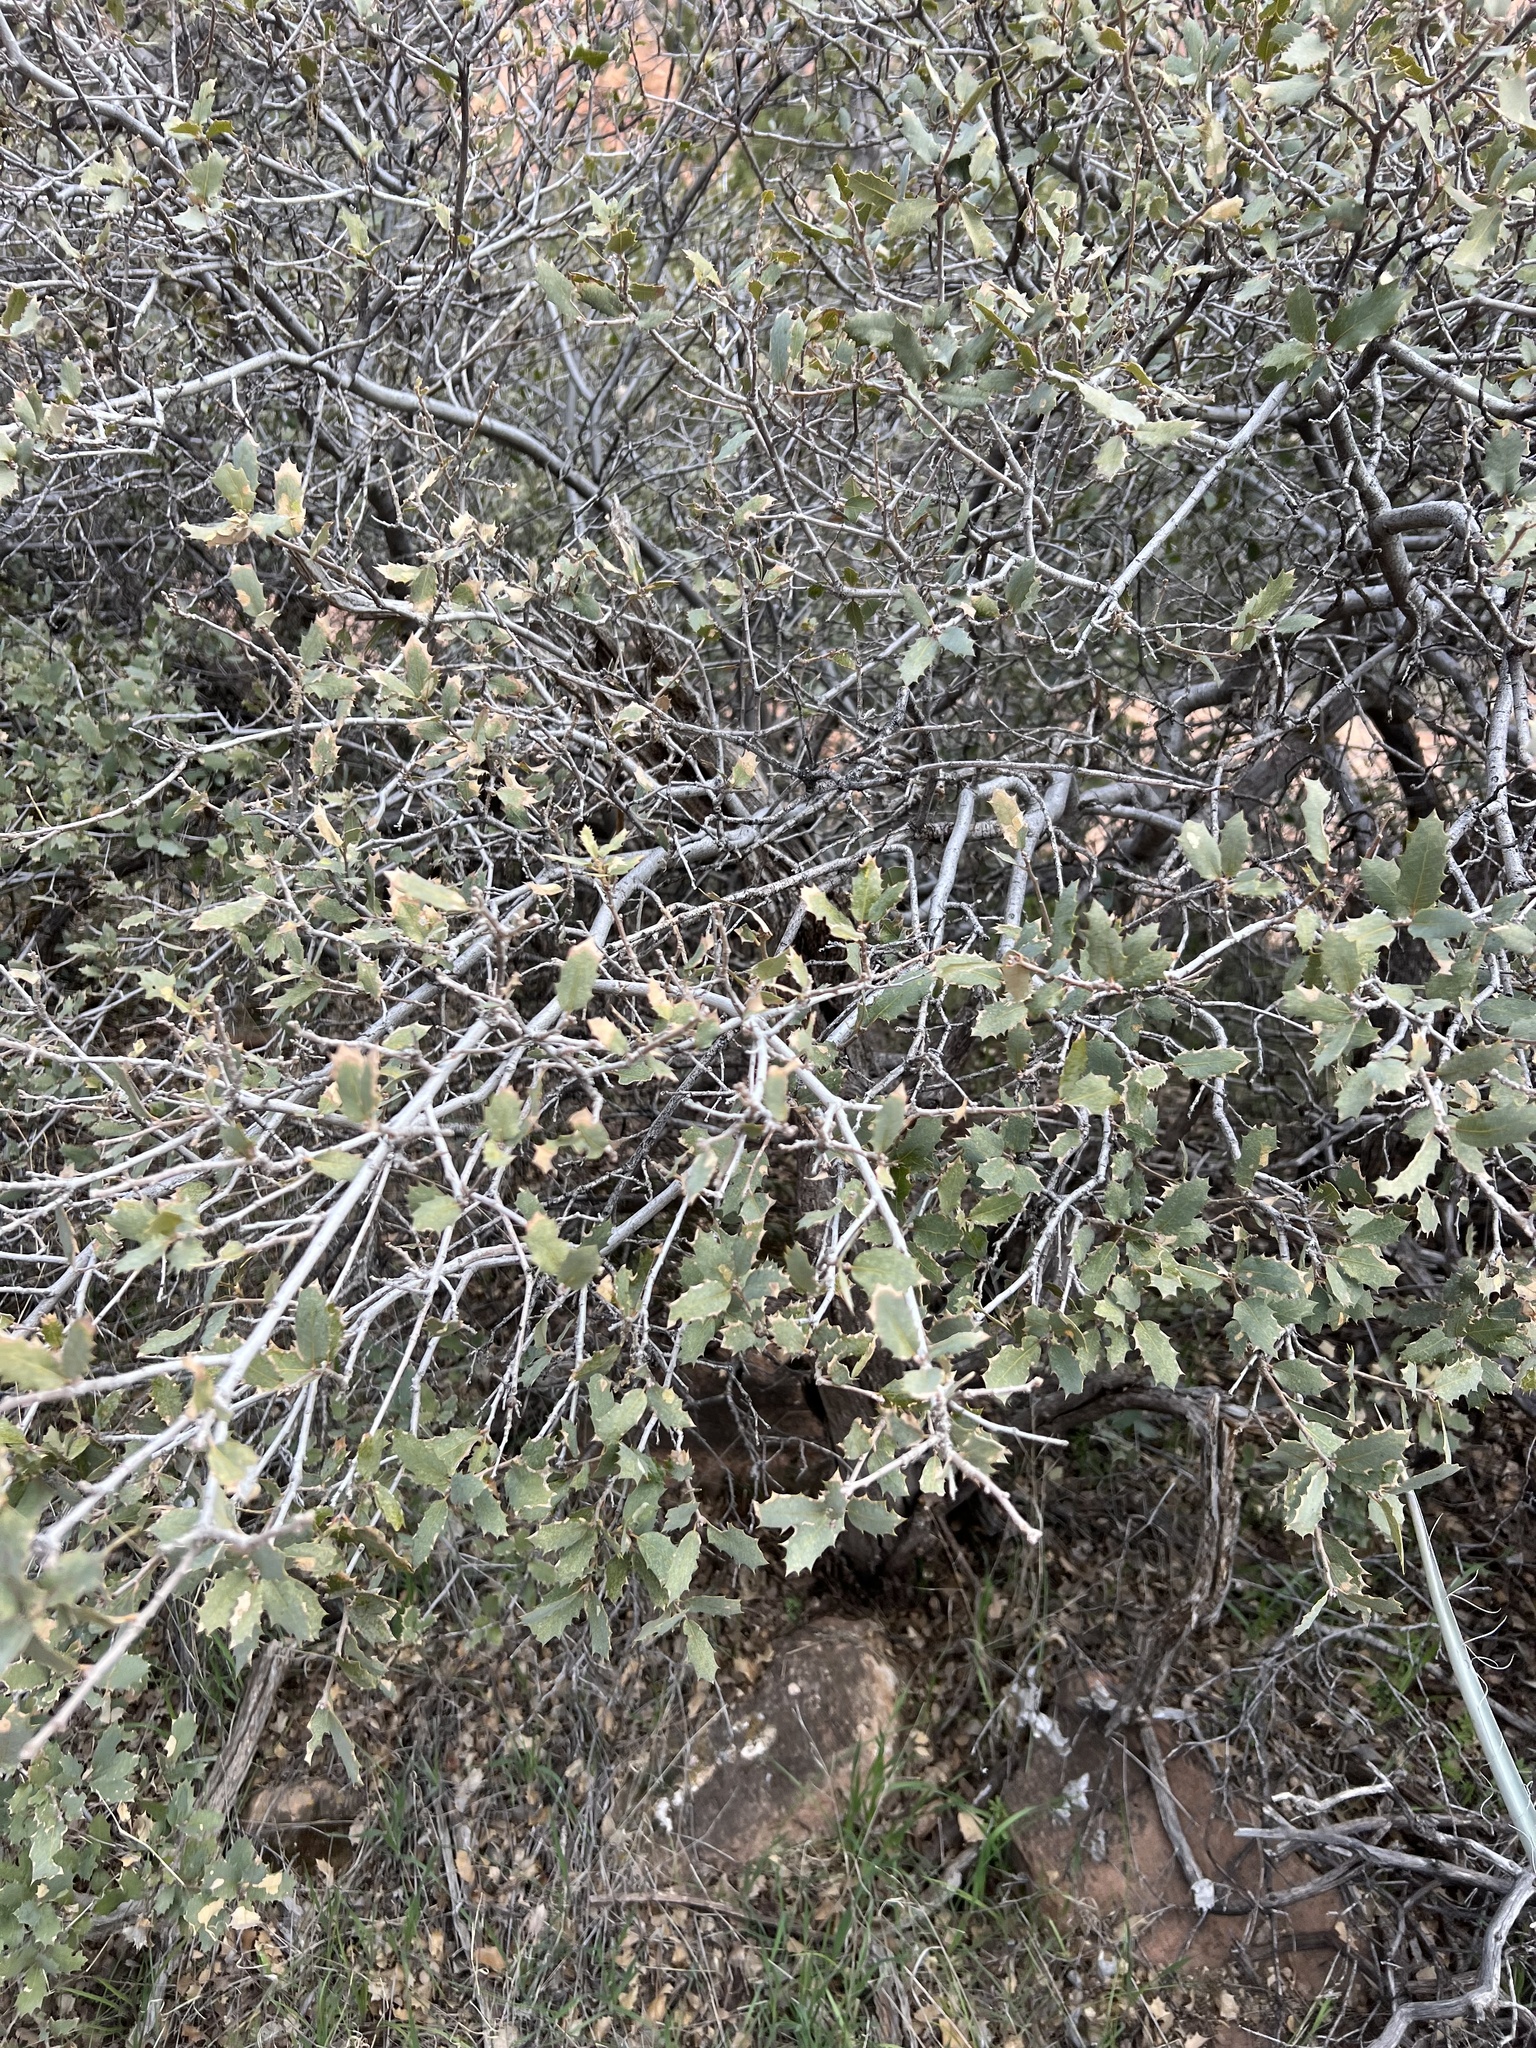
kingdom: Plantae
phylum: Tracheophyta
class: Magnoliopsida
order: Fagales
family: Fagaceae
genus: Quercus
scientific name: Quercus turbinella
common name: Sonoran scrub oak
